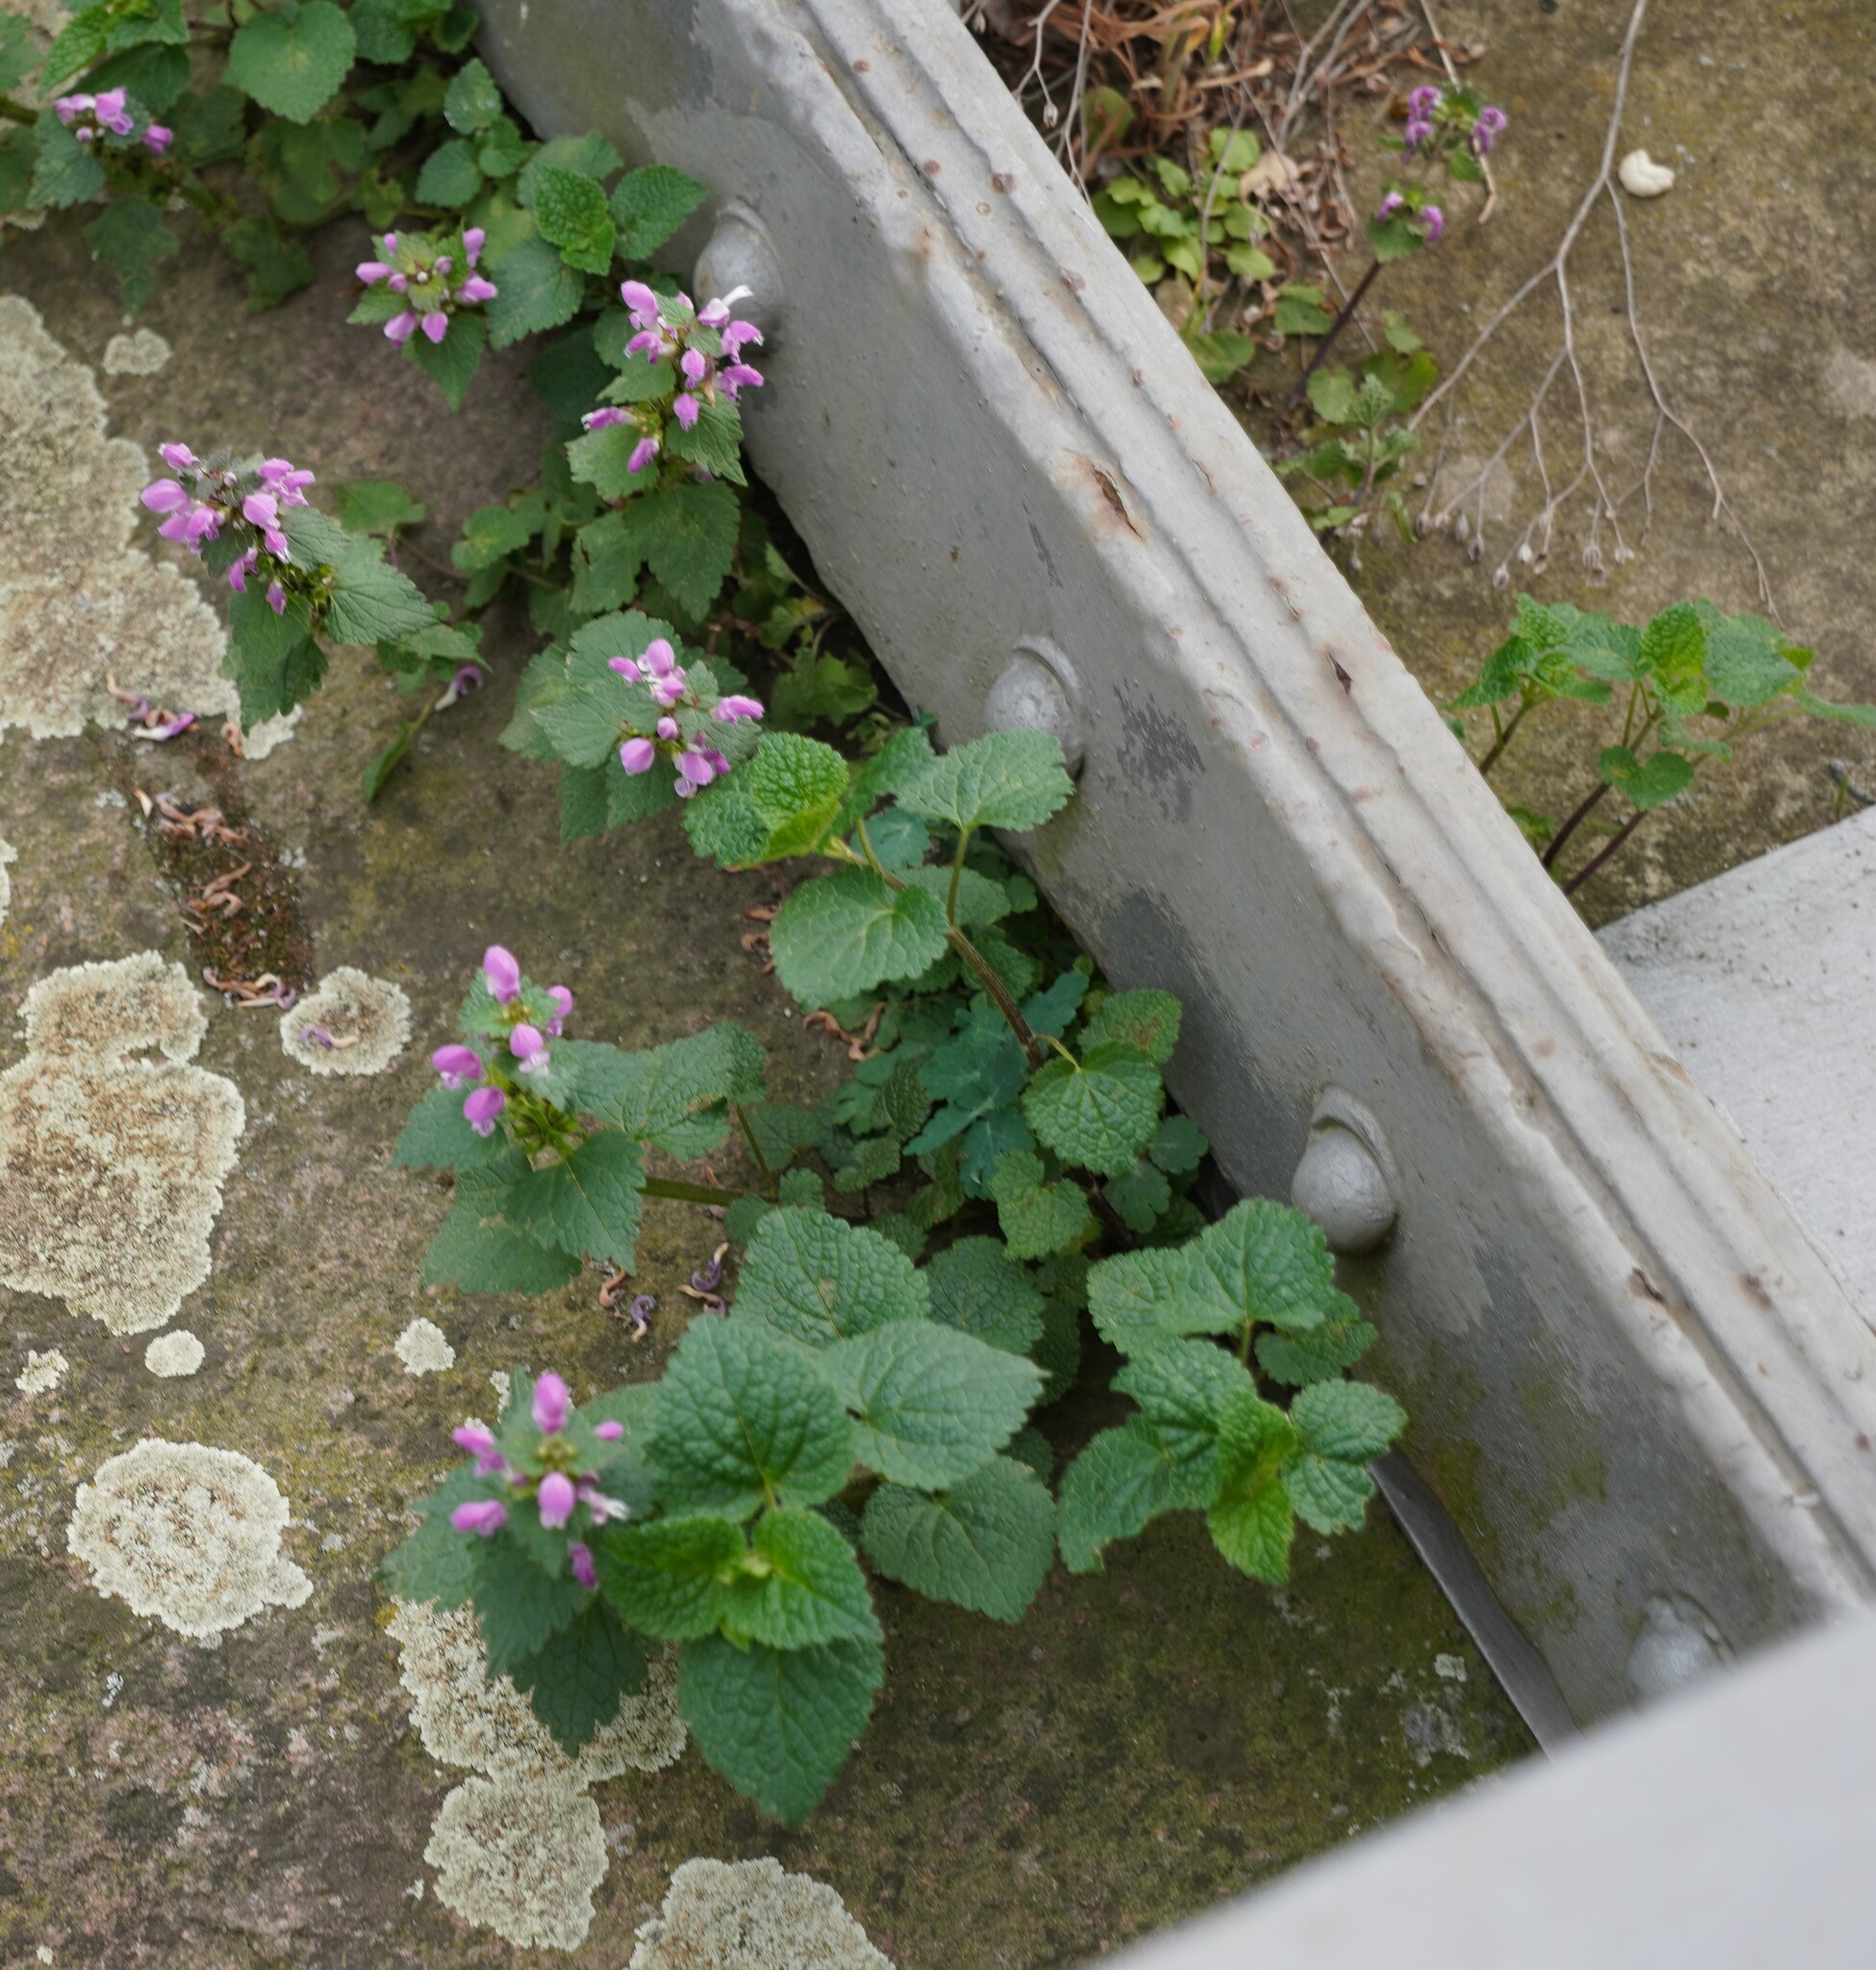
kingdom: Plantae
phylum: Tracheophyta
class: Magnoliopsida
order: Lamiales
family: Lamiaceae
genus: Lamium
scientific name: Lamium maculatum
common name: Spotted dead-nettle
